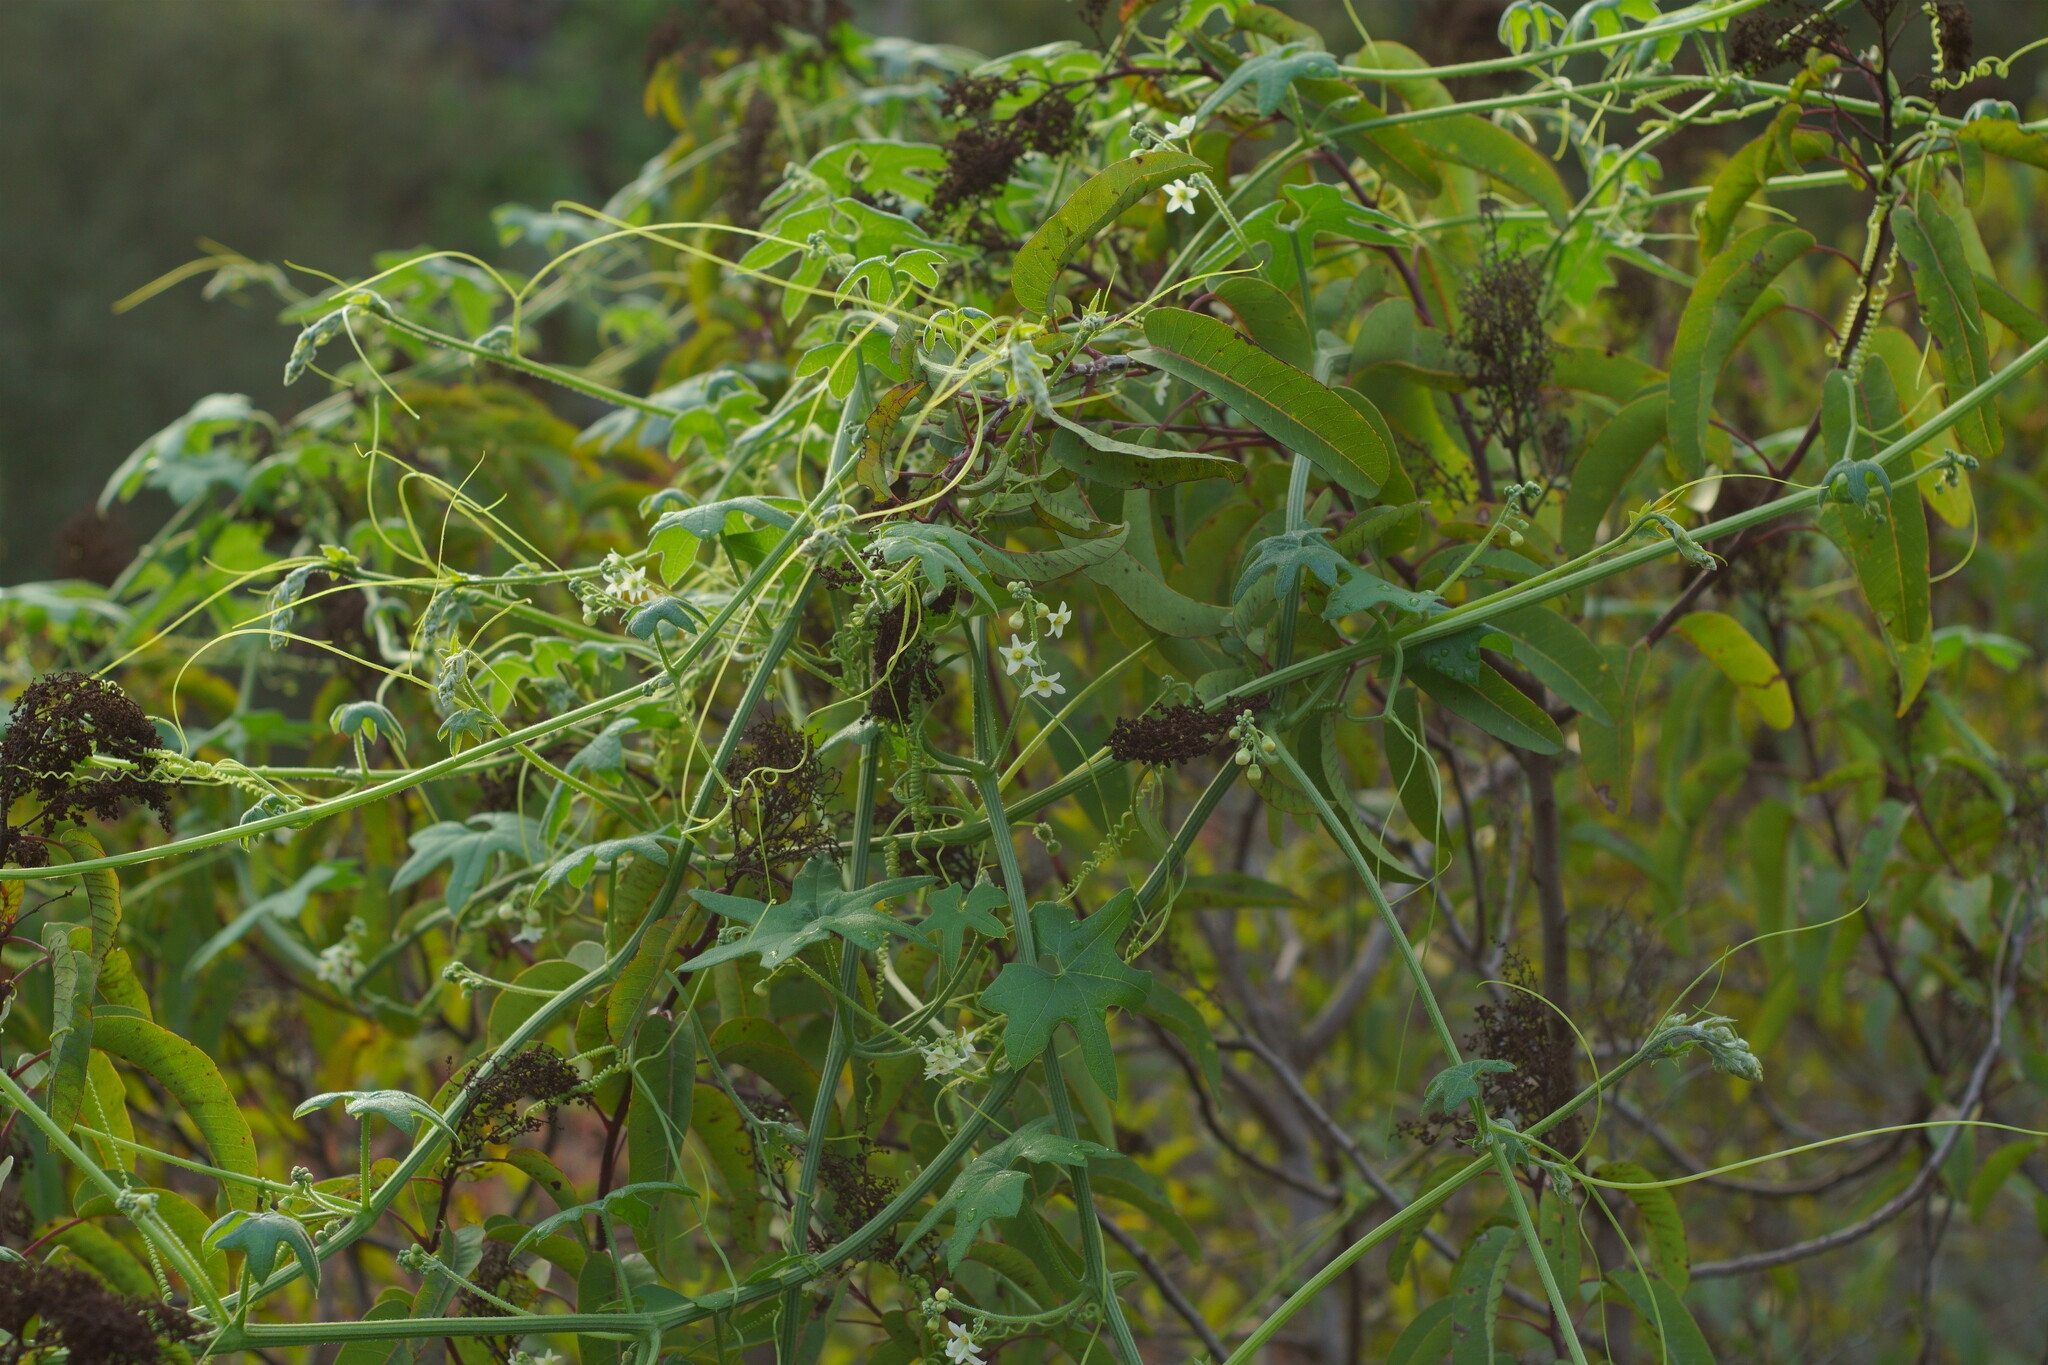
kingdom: Plantae
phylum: Tracheophyta
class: Magnoliopsida
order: Cucurbitales
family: Cucurbitaceae
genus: Marah
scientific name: Marah macrocarpa
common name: Cucamonga manroot
